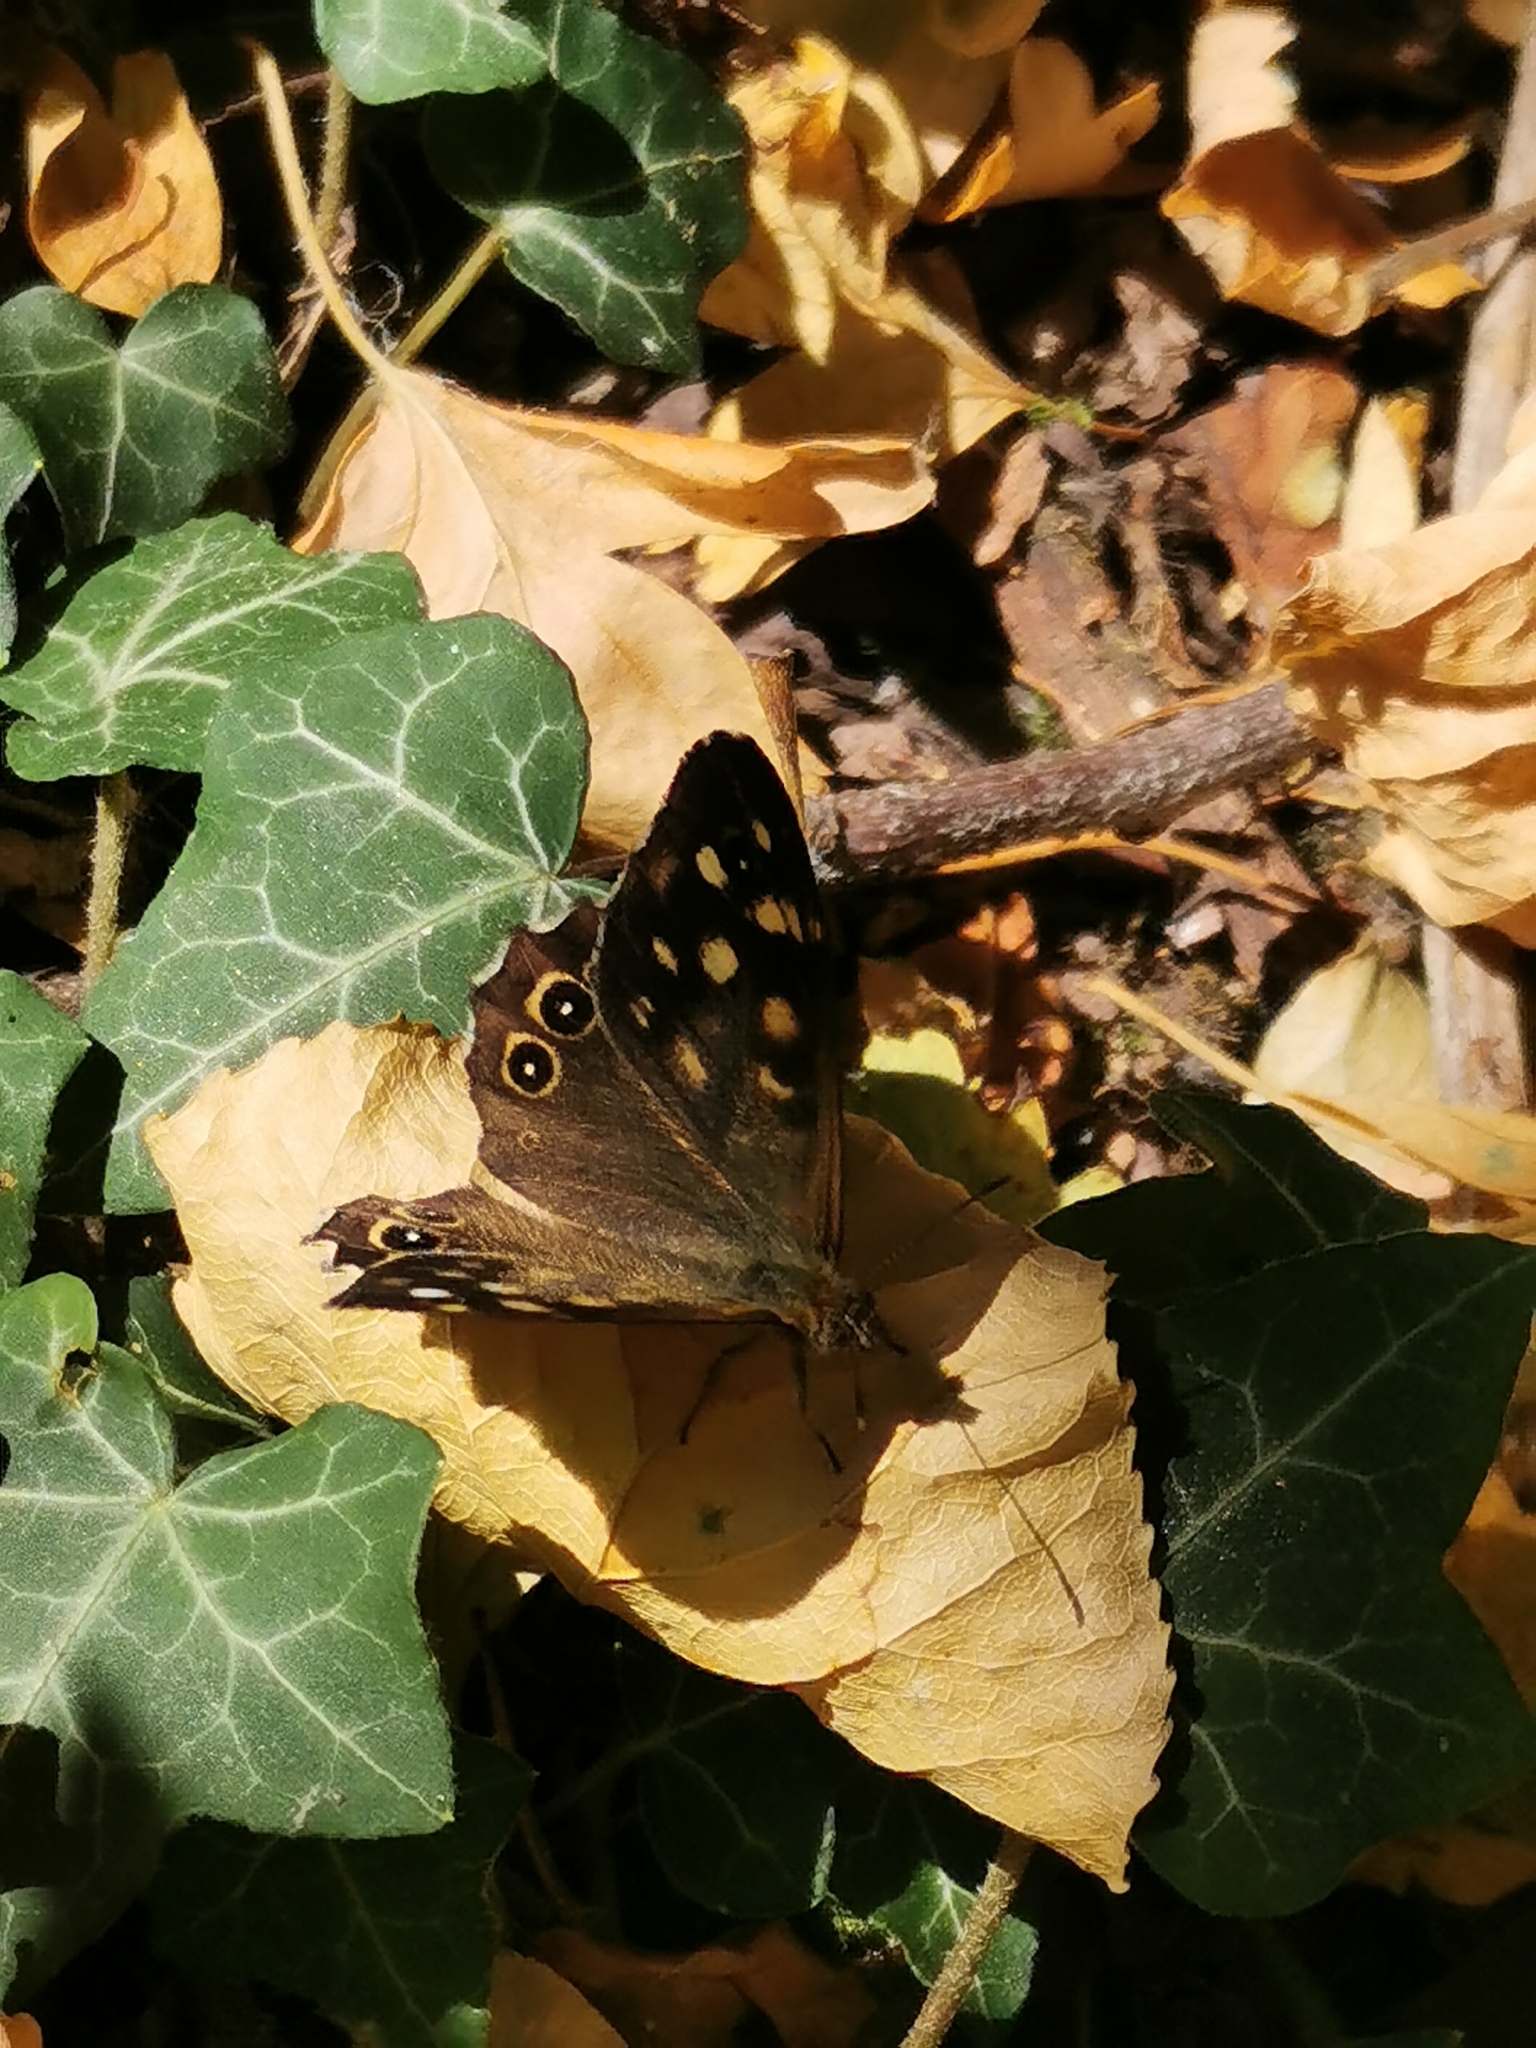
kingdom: Animalia
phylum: Arthropoda
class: Insecta
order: Lepidoptera
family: Nymphalidae
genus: Pararge
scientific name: Pararge aegeria
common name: Speckled wood
